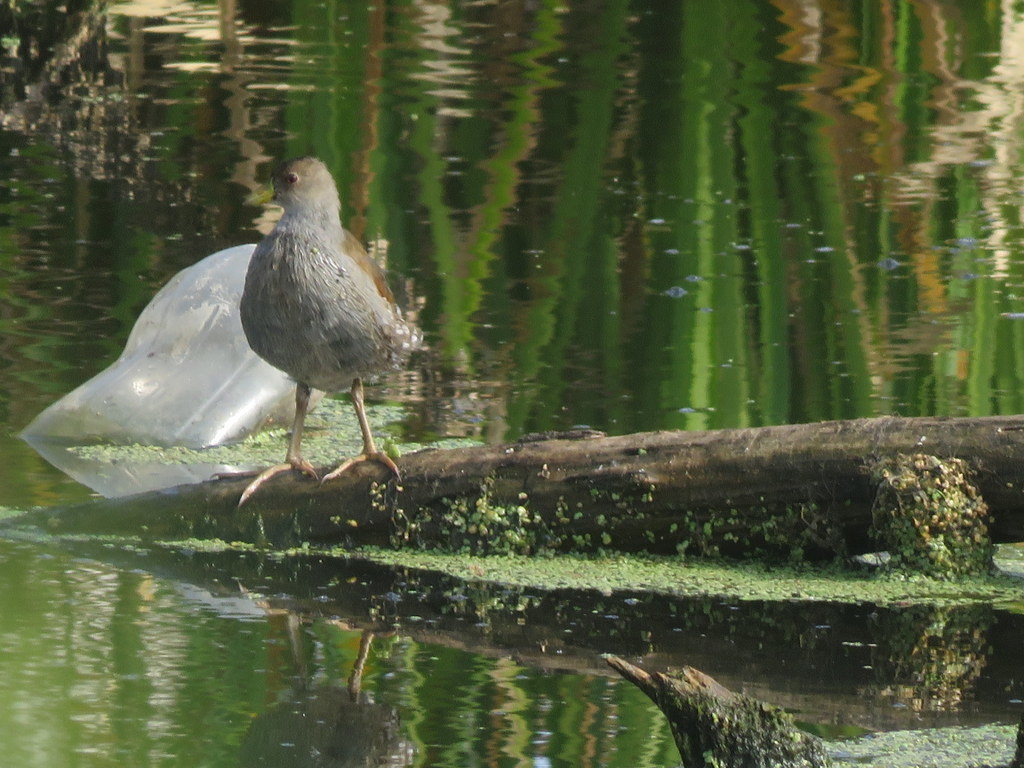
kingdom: Animalia
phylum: Chordata
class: Aves
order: Gruiformes
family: Rallidae
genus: Gallinula
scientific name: Gallinula melanops
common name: Spot-flanked gallinule
